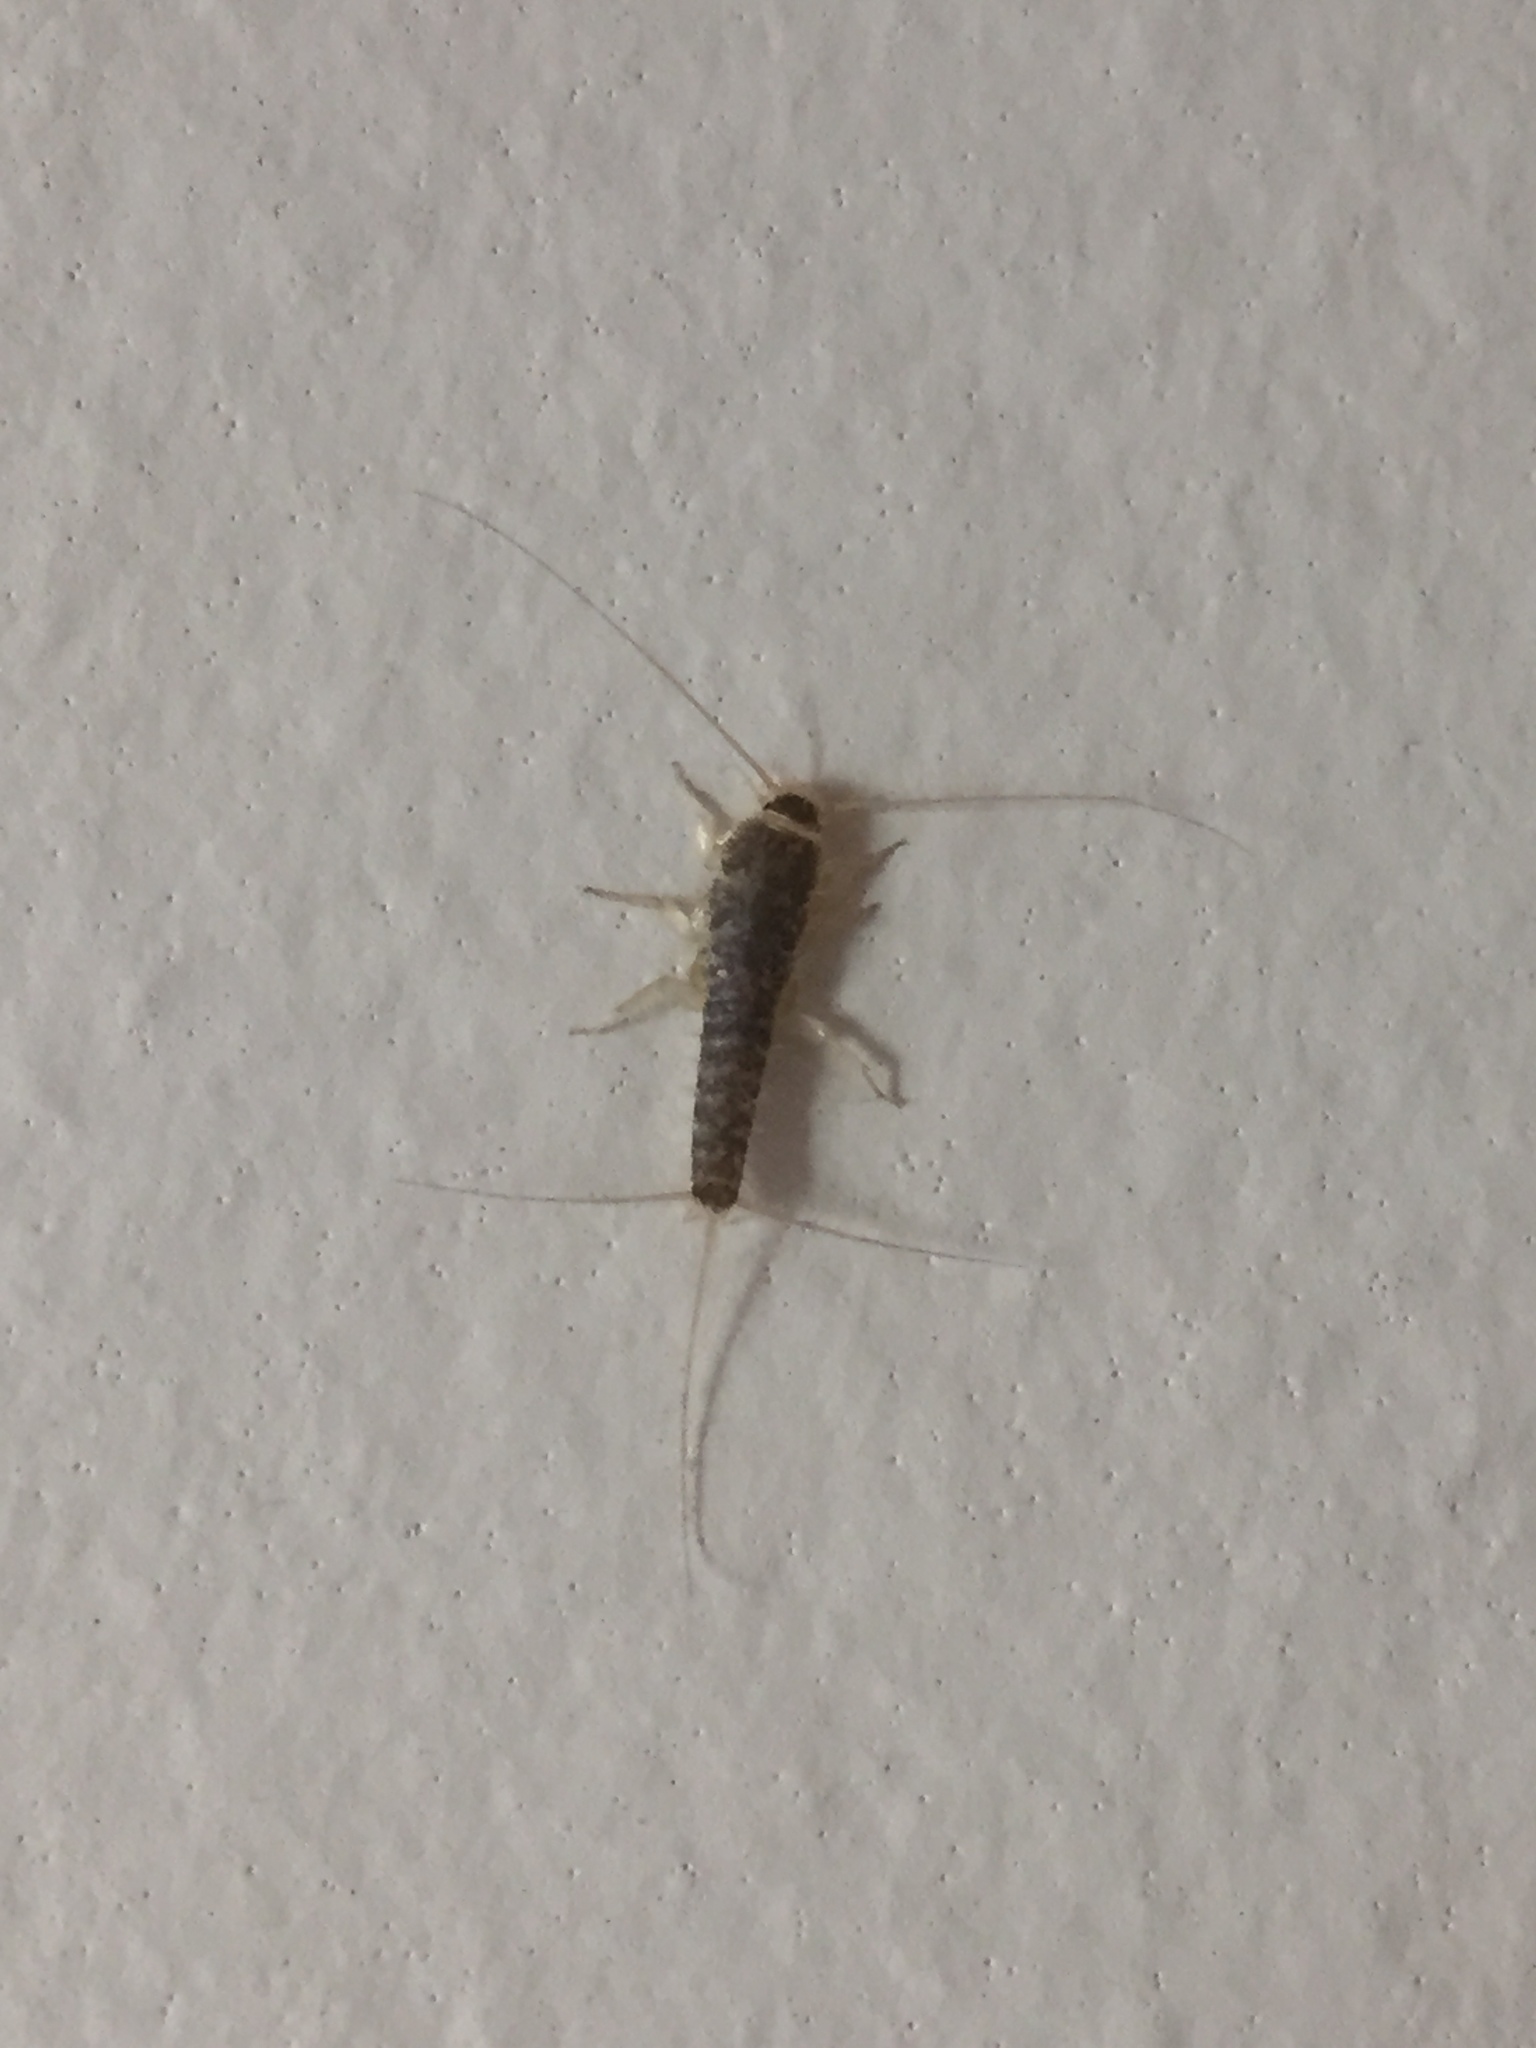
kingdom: Animalia
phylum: Arthropoda
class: Insecta
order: Zygentoma
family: Lepismatidae
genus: Ctenolepisma
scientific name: Ctenolepisma longicaudatum
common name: Silverfish
